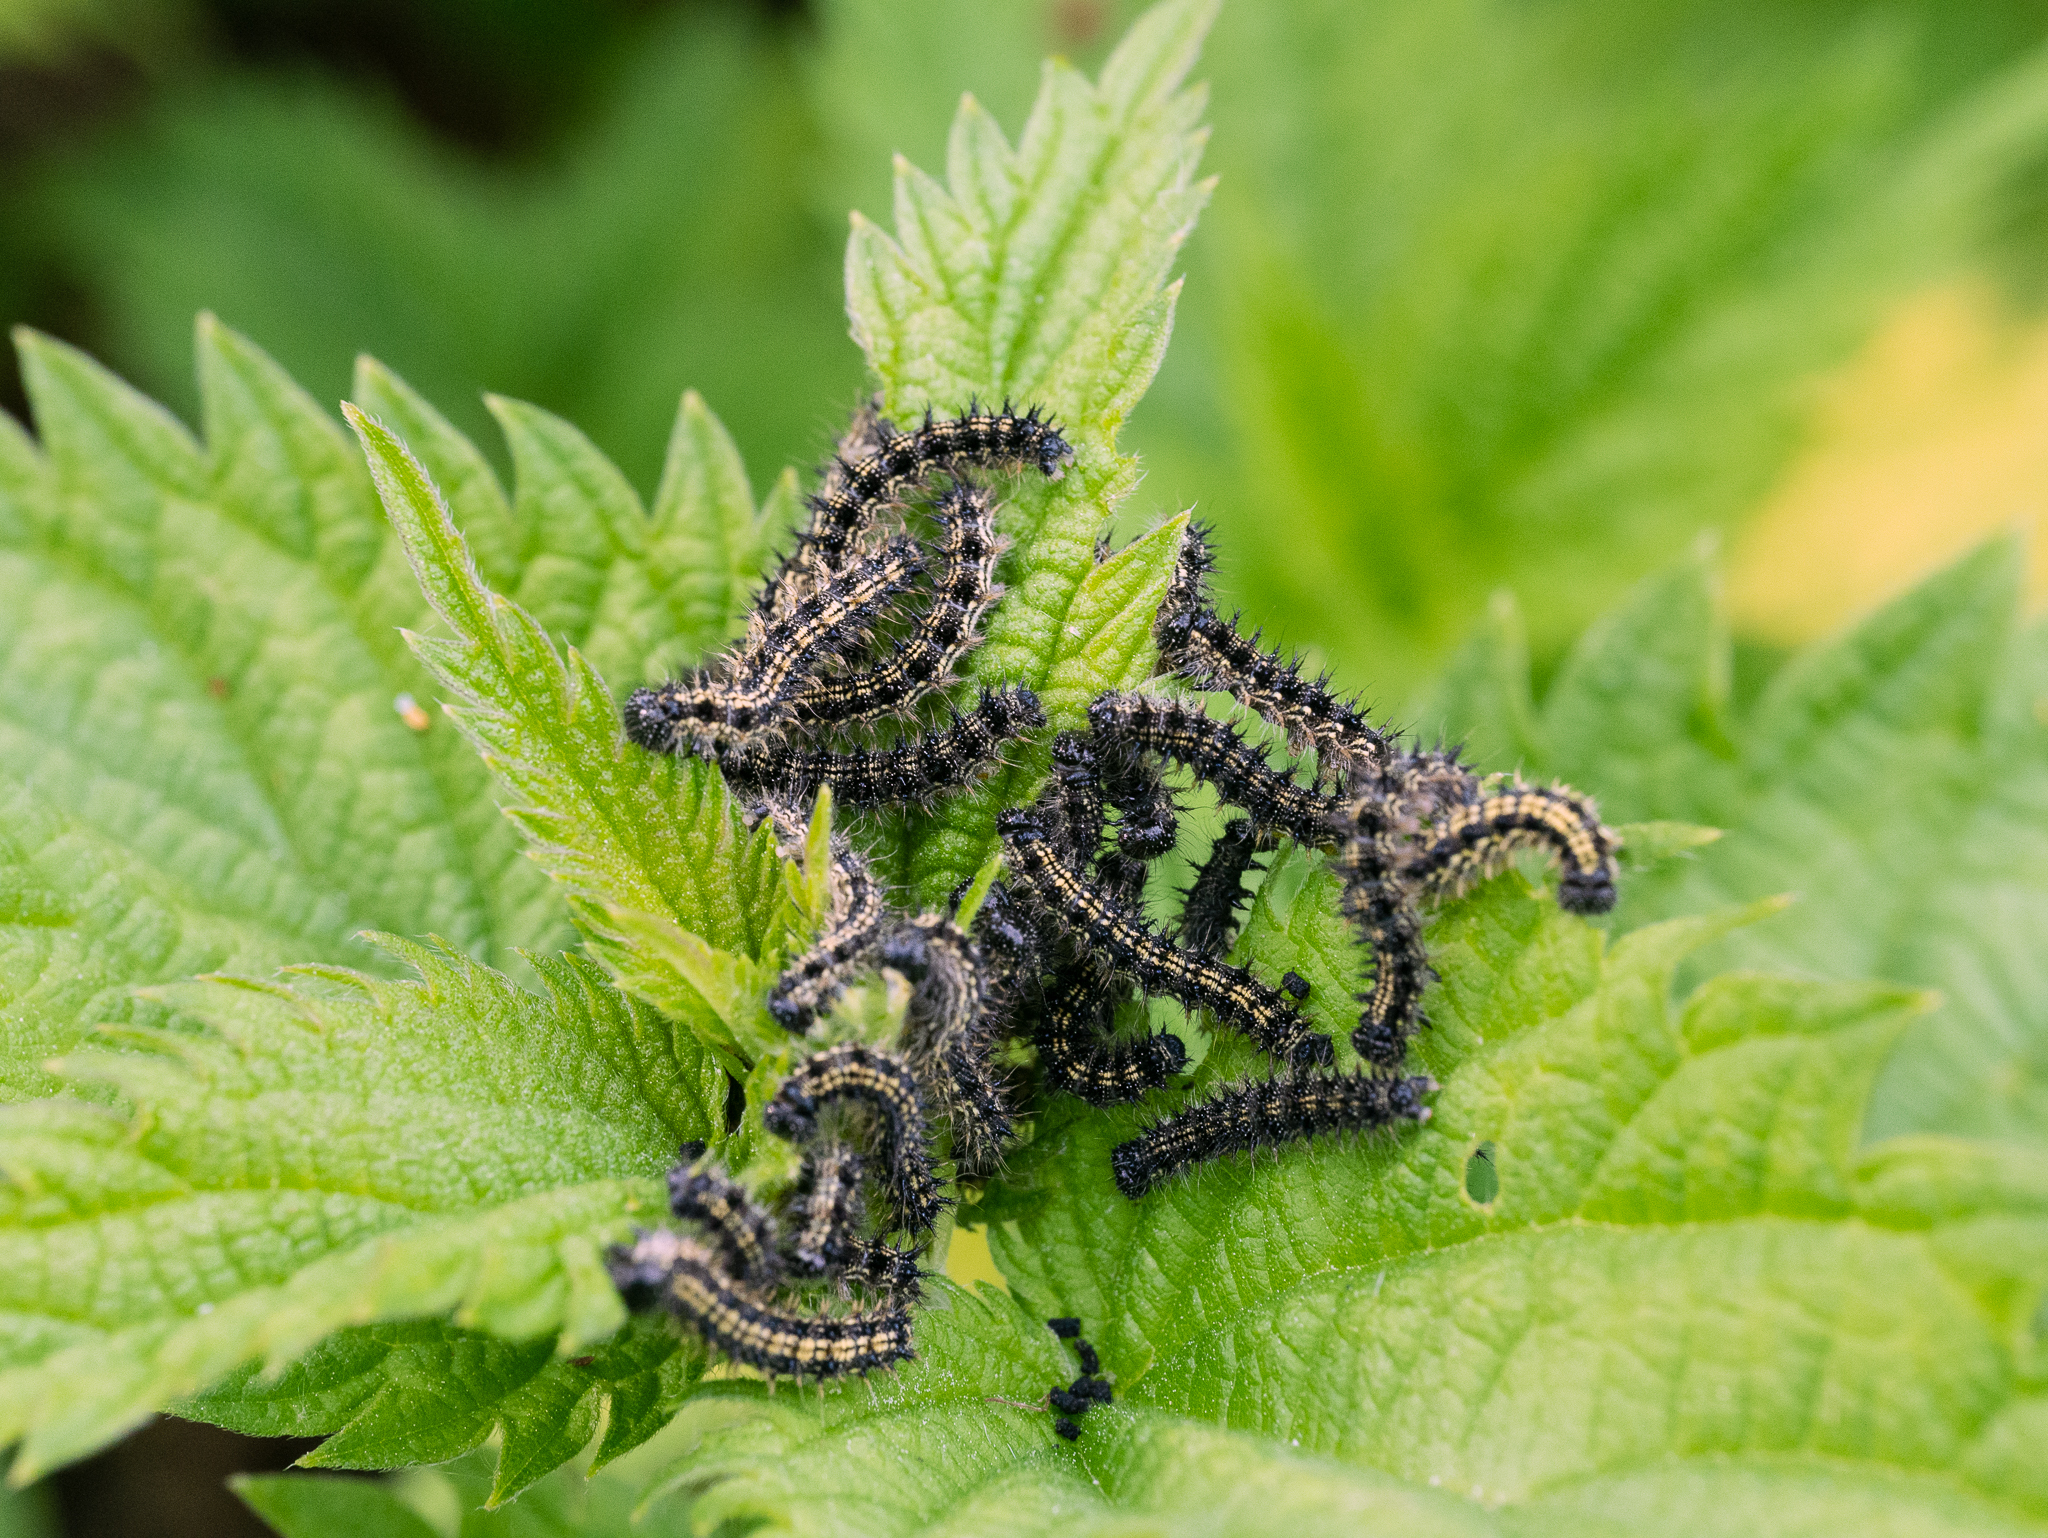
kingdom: Animalia
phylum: Arthropoda
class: Insecta
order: Lepidoptera
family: Nymphalidae
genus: Aglais
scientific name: Aglais urticae
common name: Small tortoiseshell
